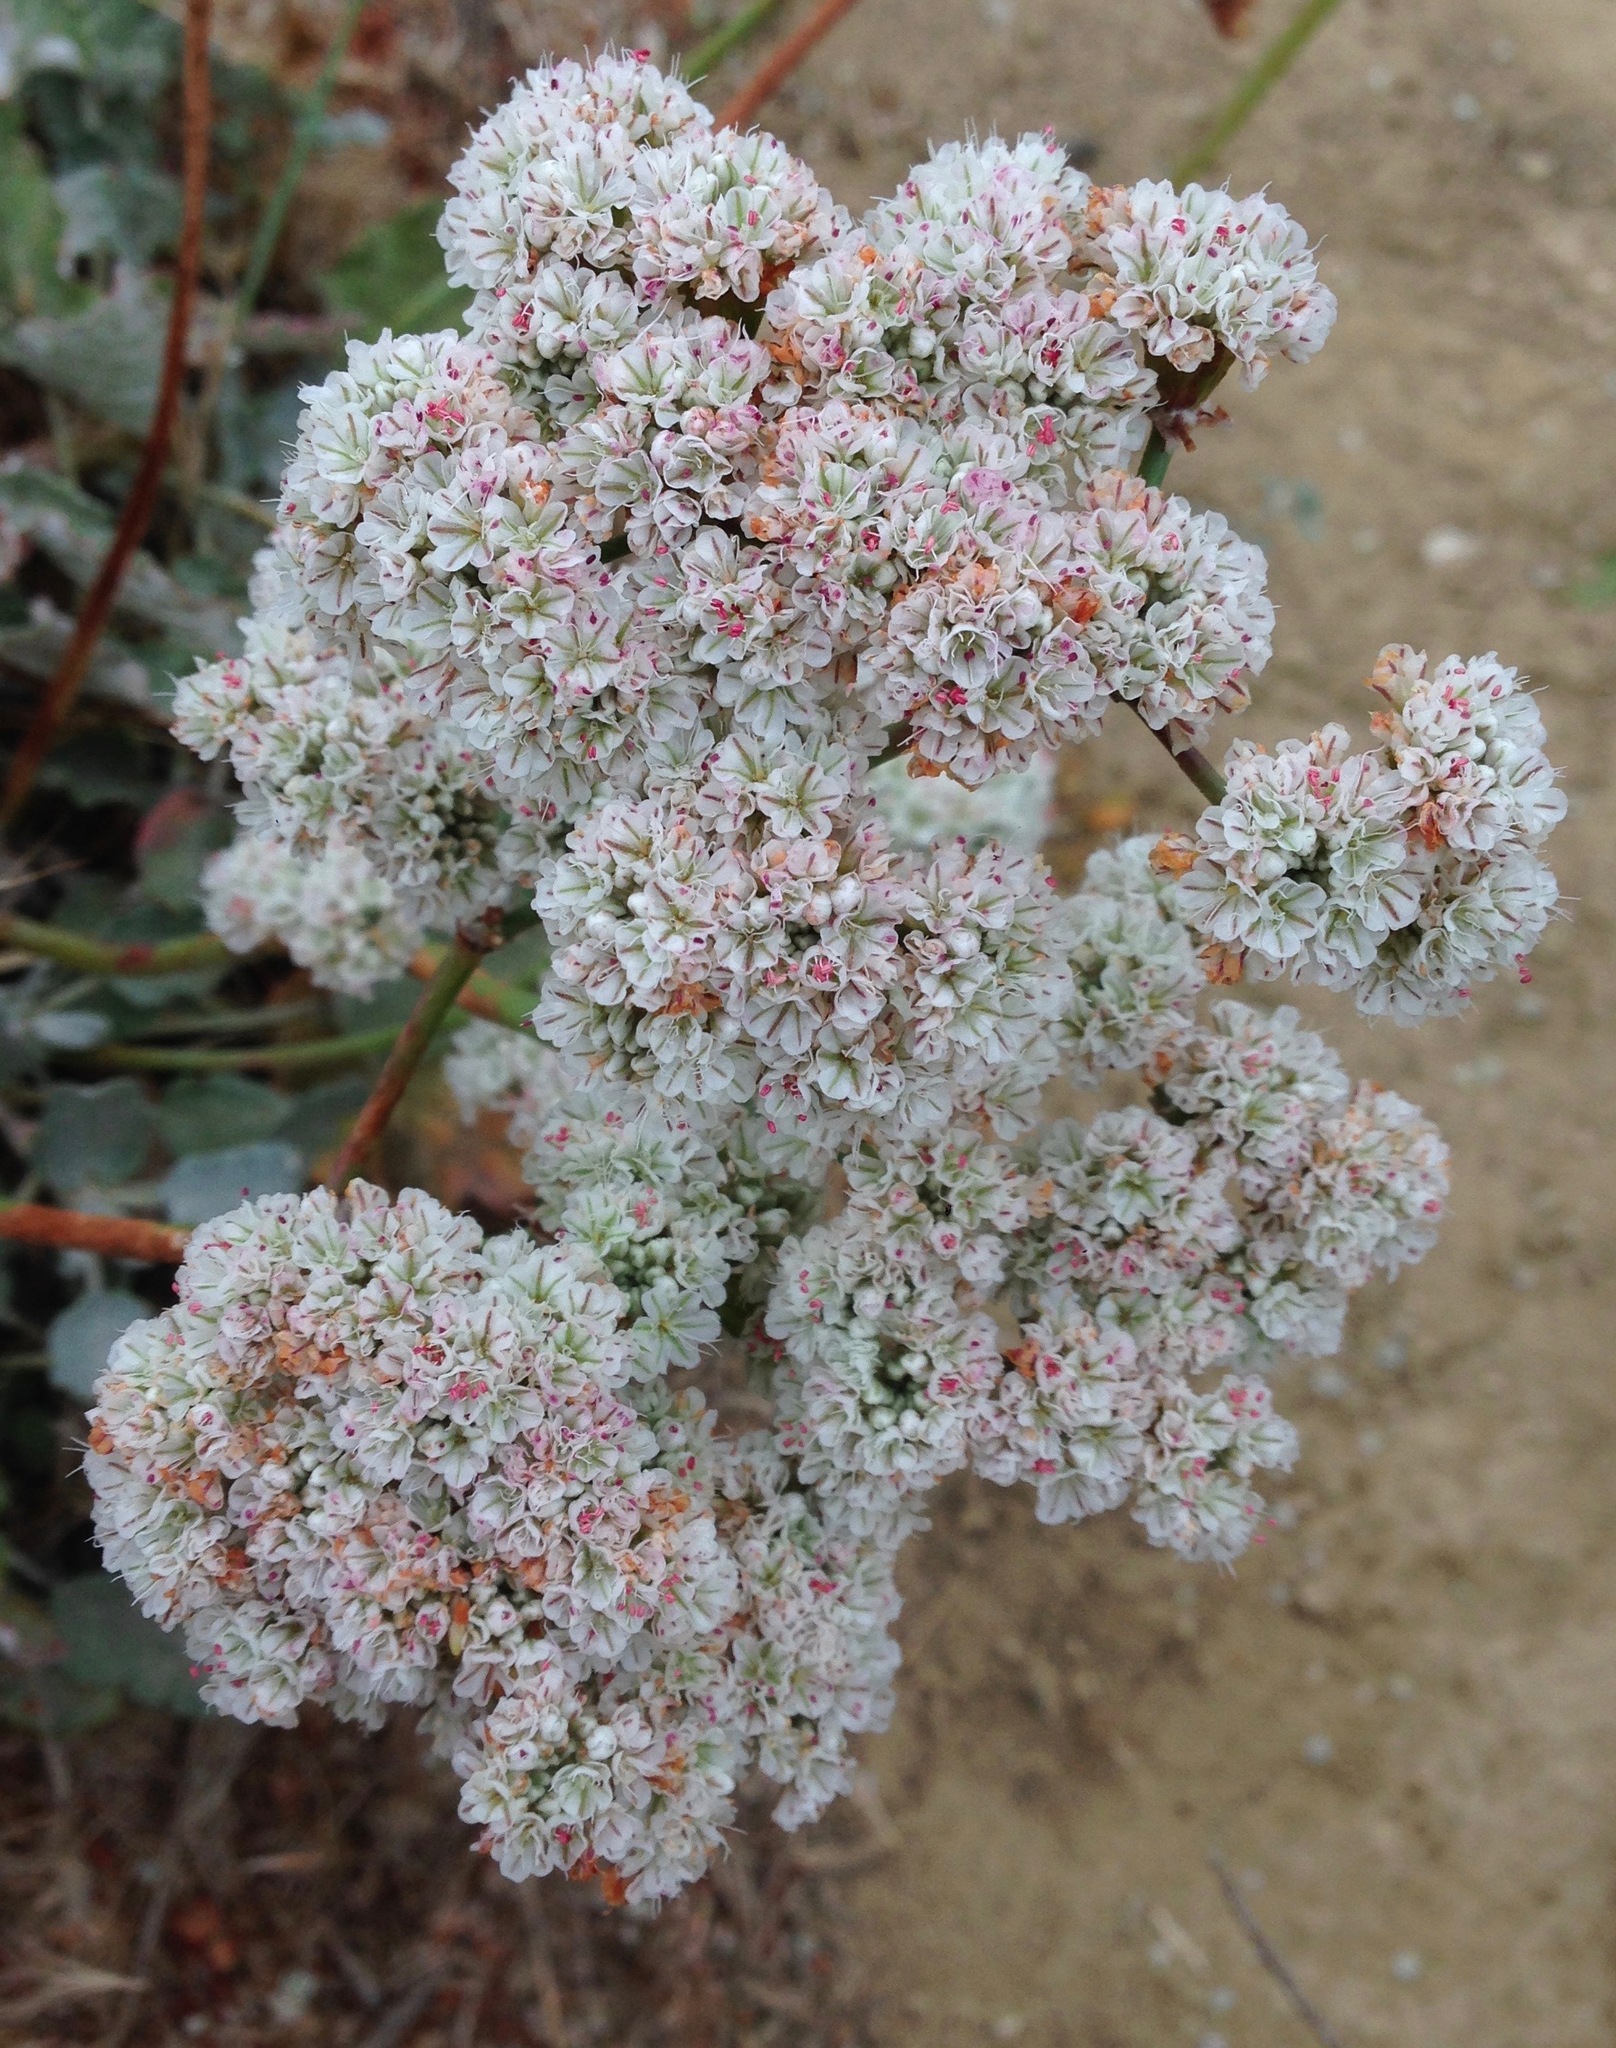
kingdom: Plantae
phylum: Tracheophyta
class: Magnoliopsida
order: Caryophyllales
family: Polygonaceae
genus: Eriogonum
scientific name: Eriogonum grande
